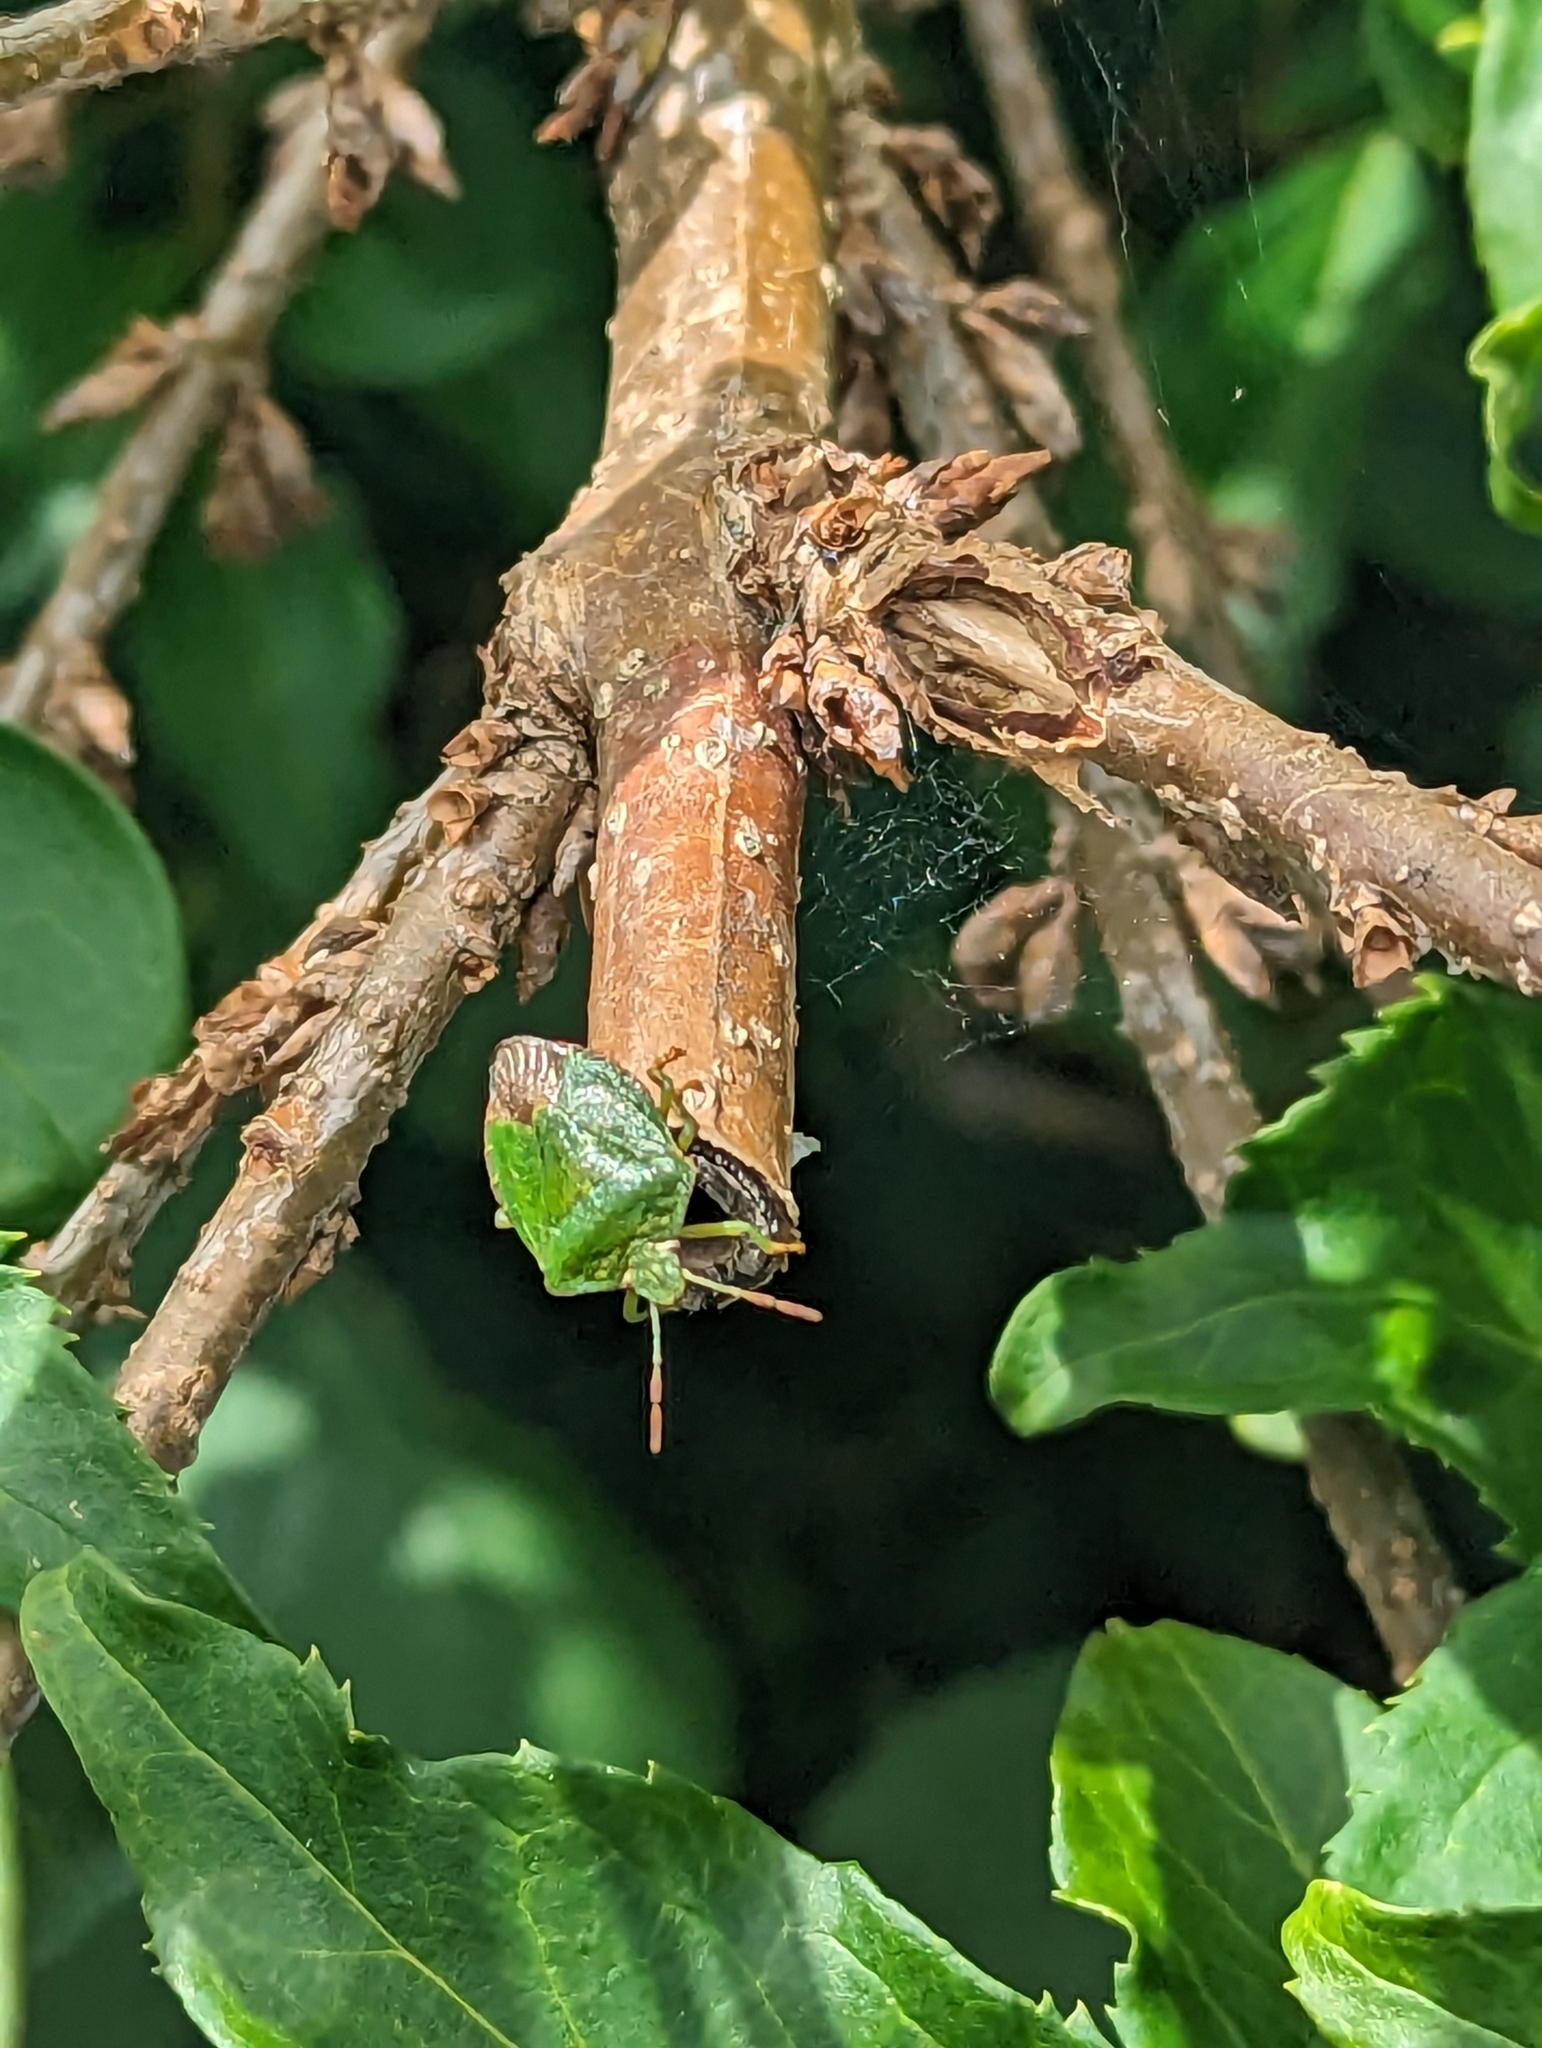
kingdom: Animalia
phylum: Arthropoda
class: Insecta
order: Hemiptera
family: Pentatomidae
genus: Palomena
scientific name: Palomena prasina
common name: Green shieldbug
